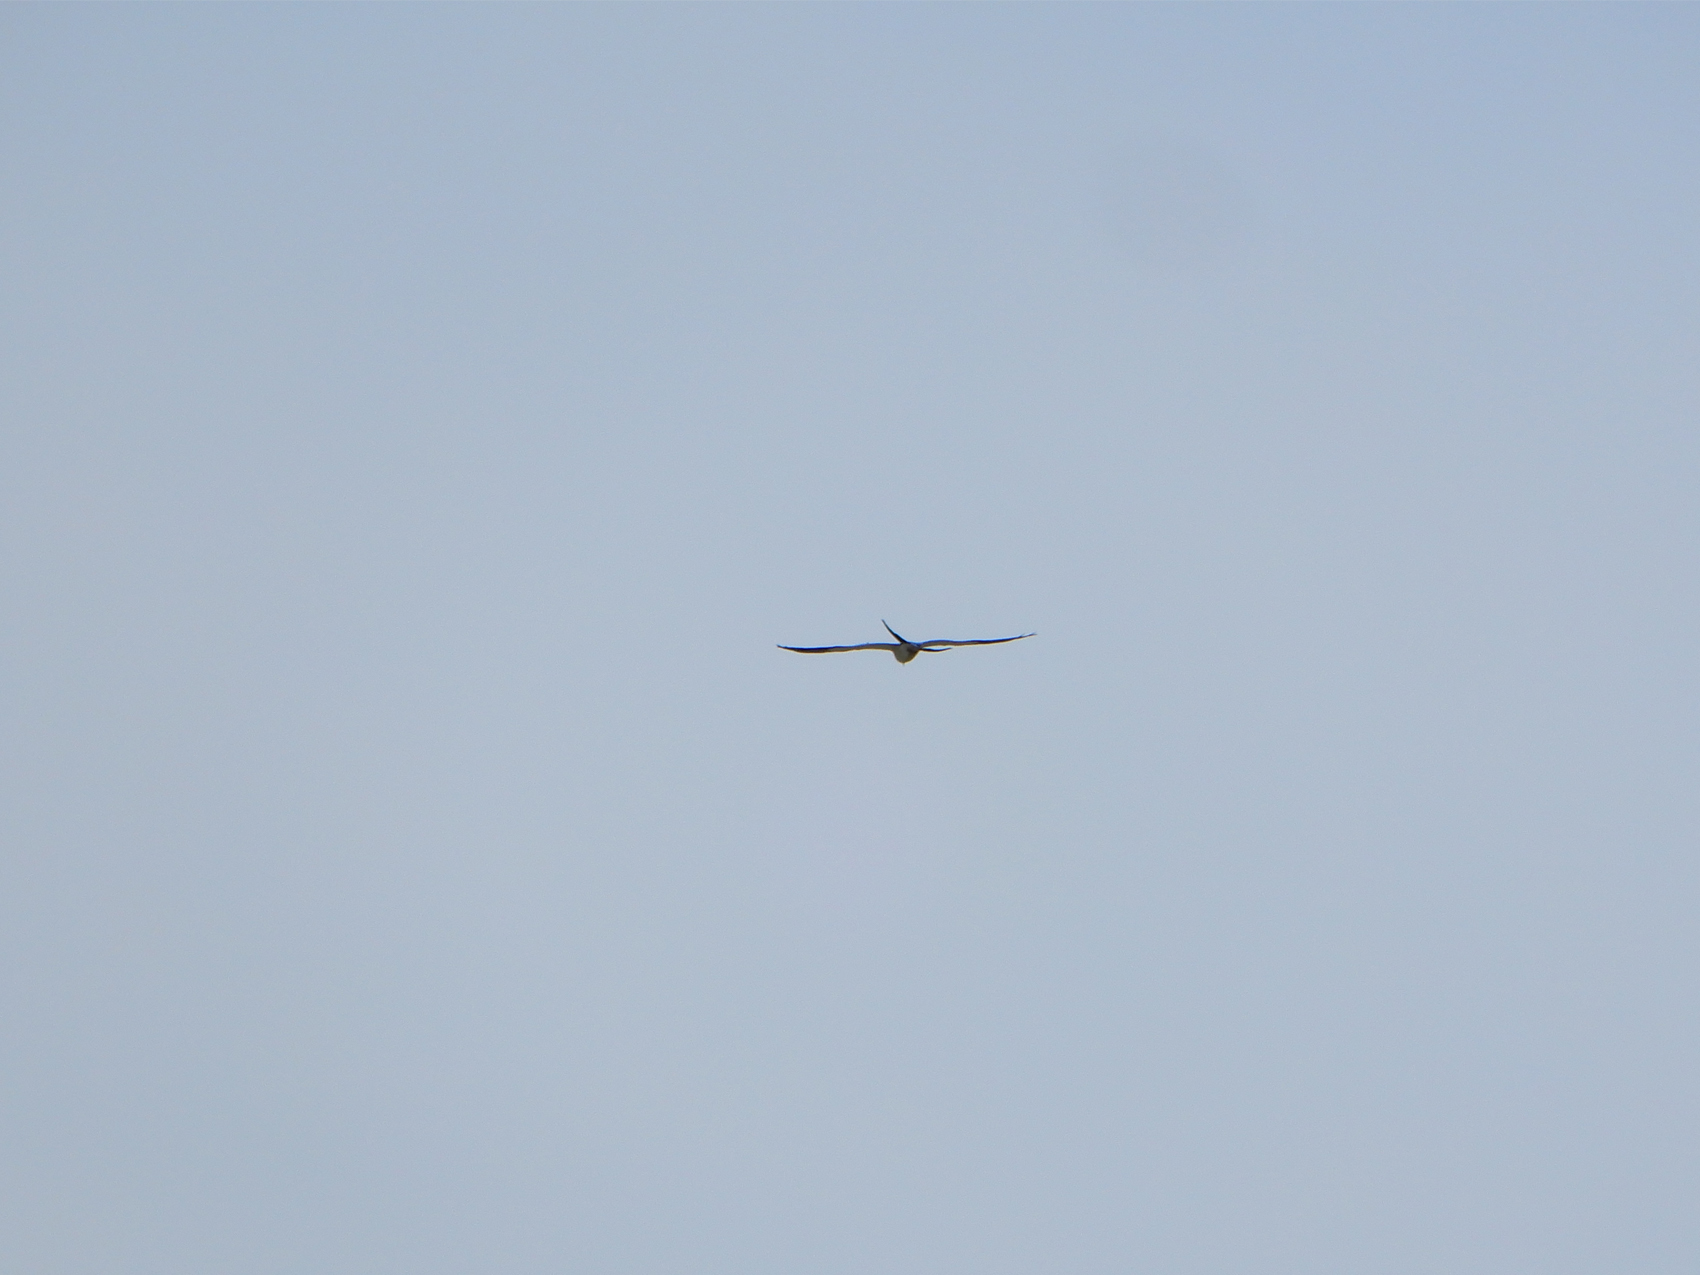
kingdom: Animalia
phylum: Chordata
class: Aves
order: Accipitriformes
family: Accipitridae
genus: Elanoides
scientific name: Elanoides forficatus
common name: Swallow-tailed kite
